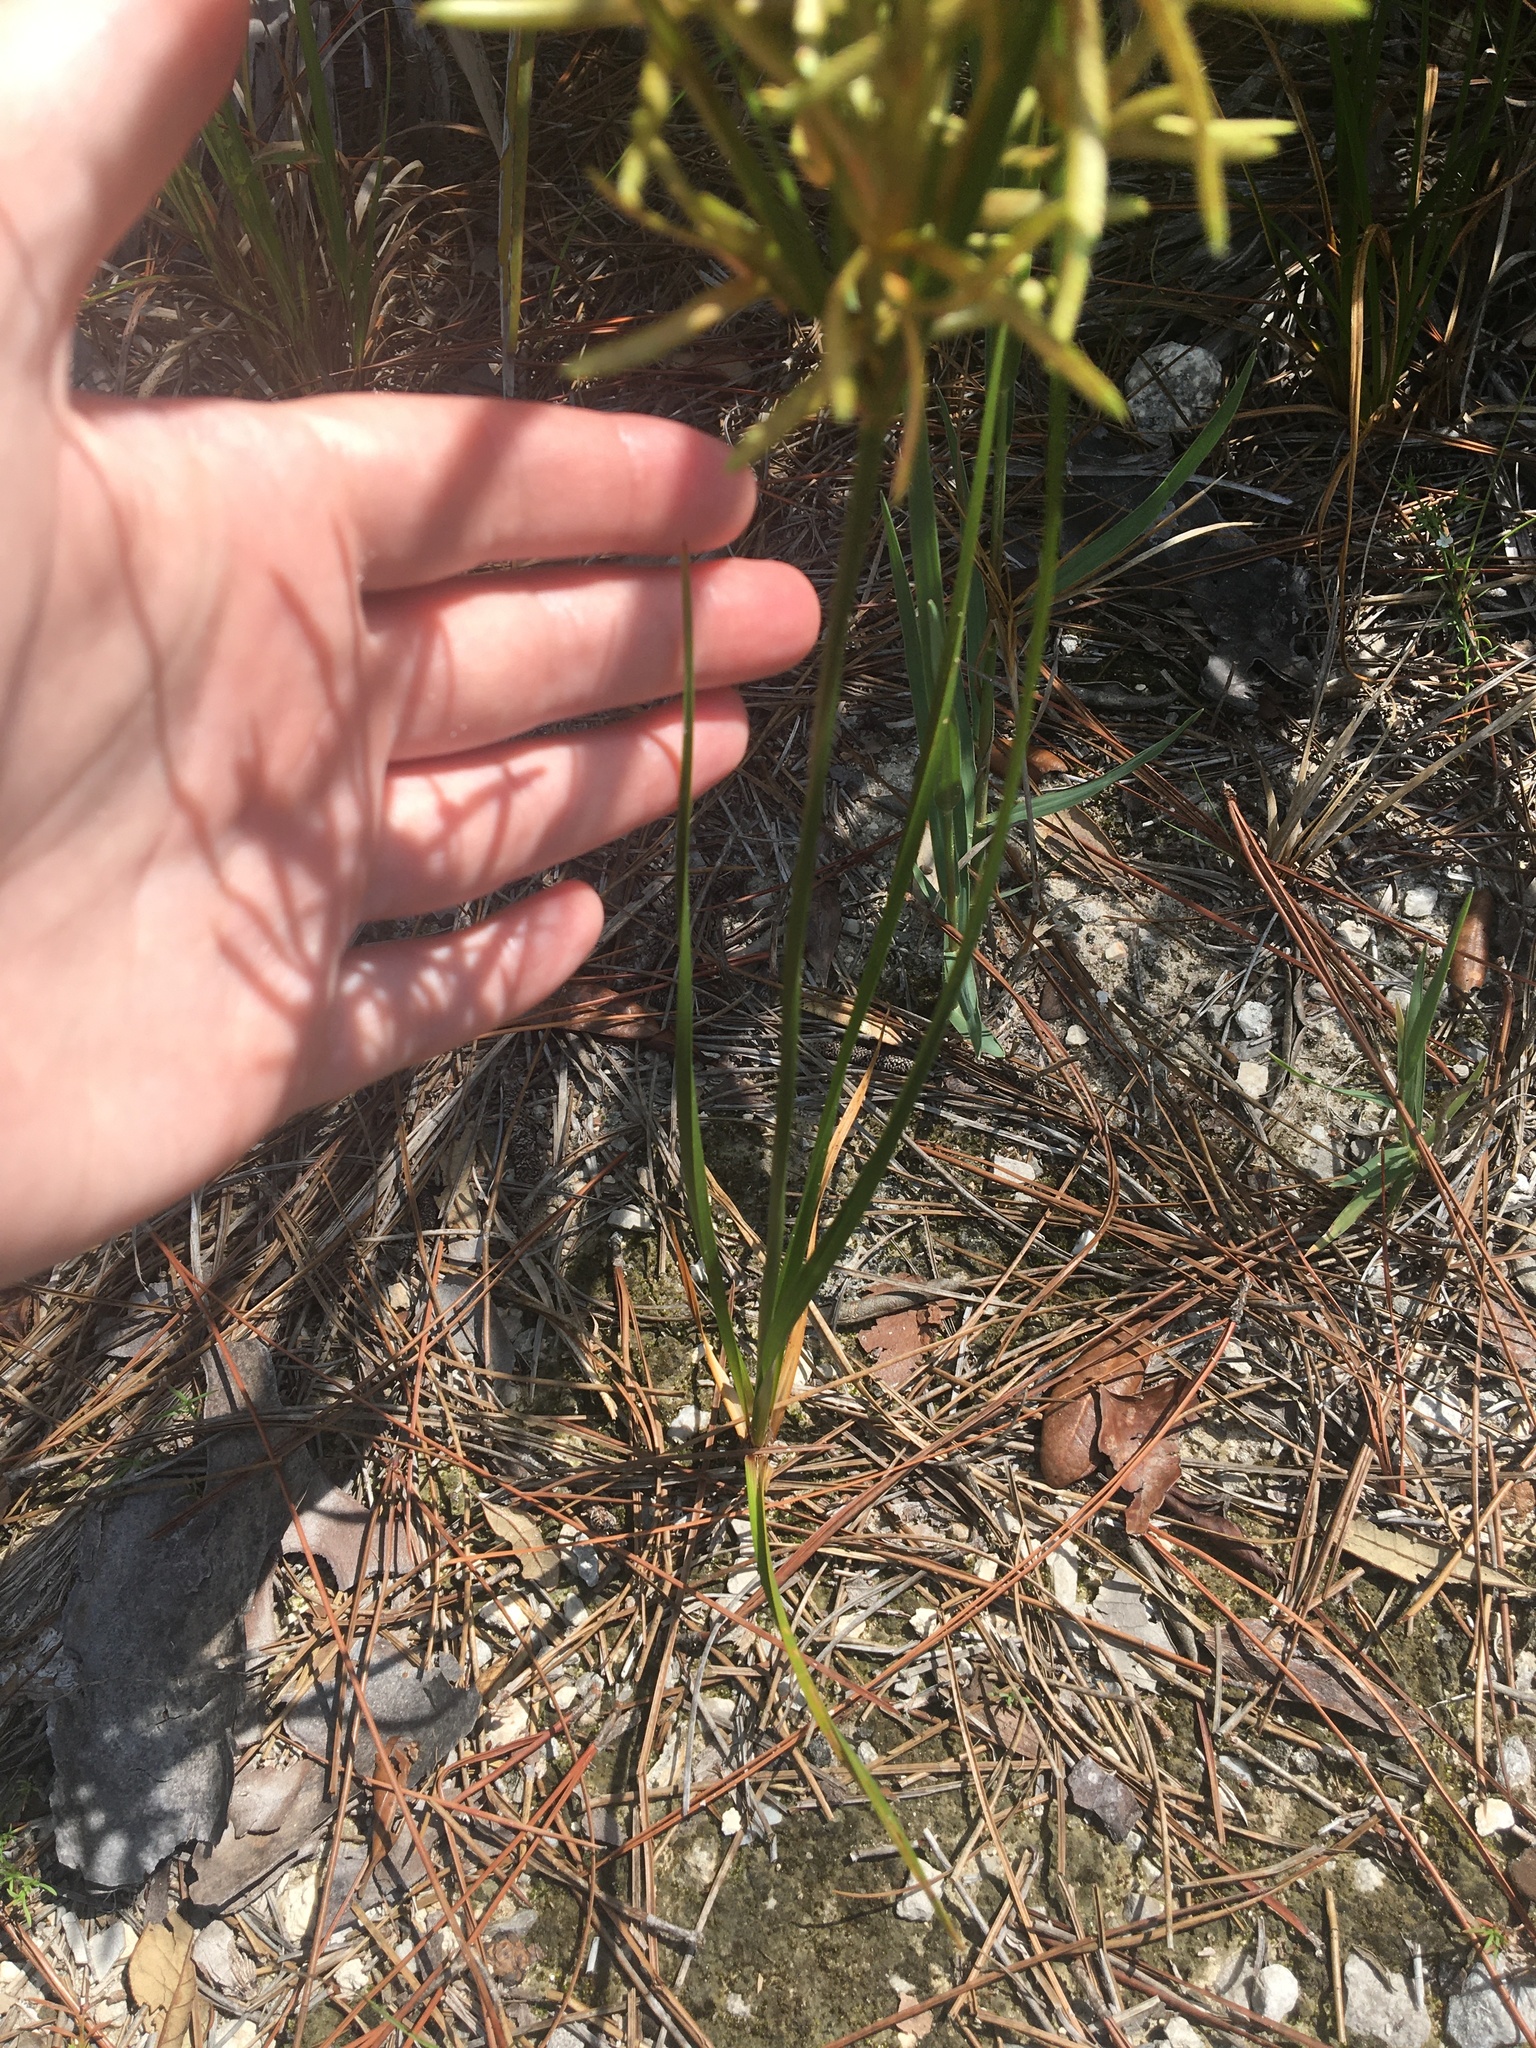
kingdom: Plantae
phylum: Tracheophyta
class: Liliopsida
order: Poales
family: Cyperaceae
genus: Cyperus
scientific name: Cyperus lecontei
